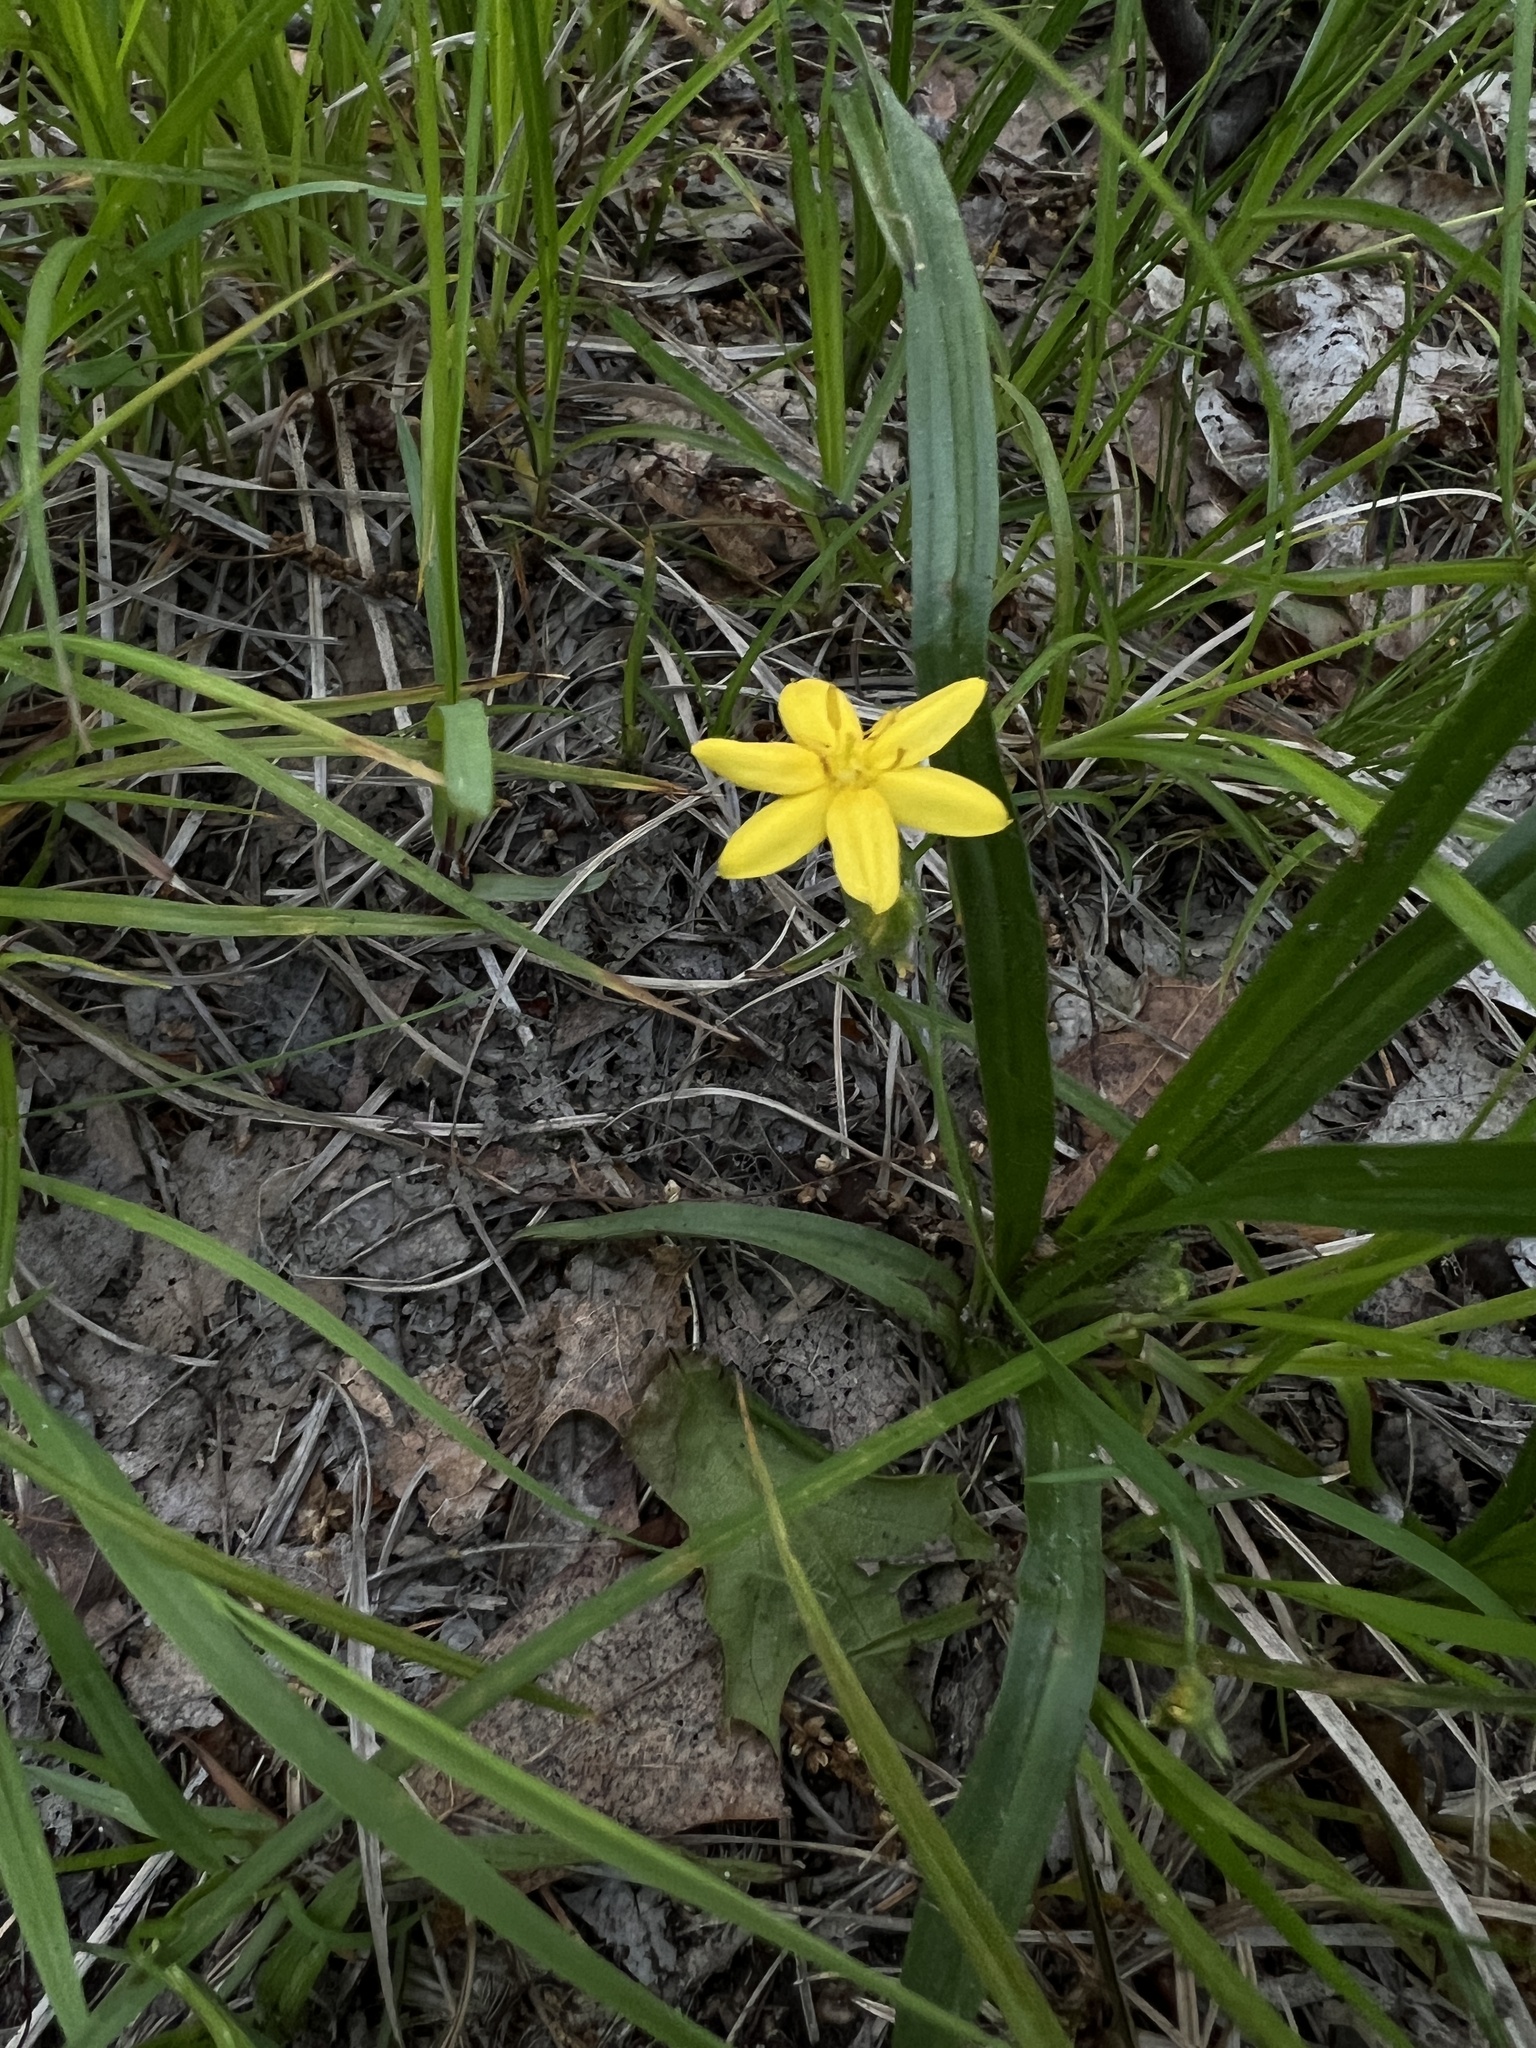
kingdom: Plantae
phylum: Tracheophyta
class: Liliopsida
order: Asparagales
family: Hypoxidaceae
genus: Hypoxis
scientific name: Hypoxis hirsuta
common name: Common goldstar
